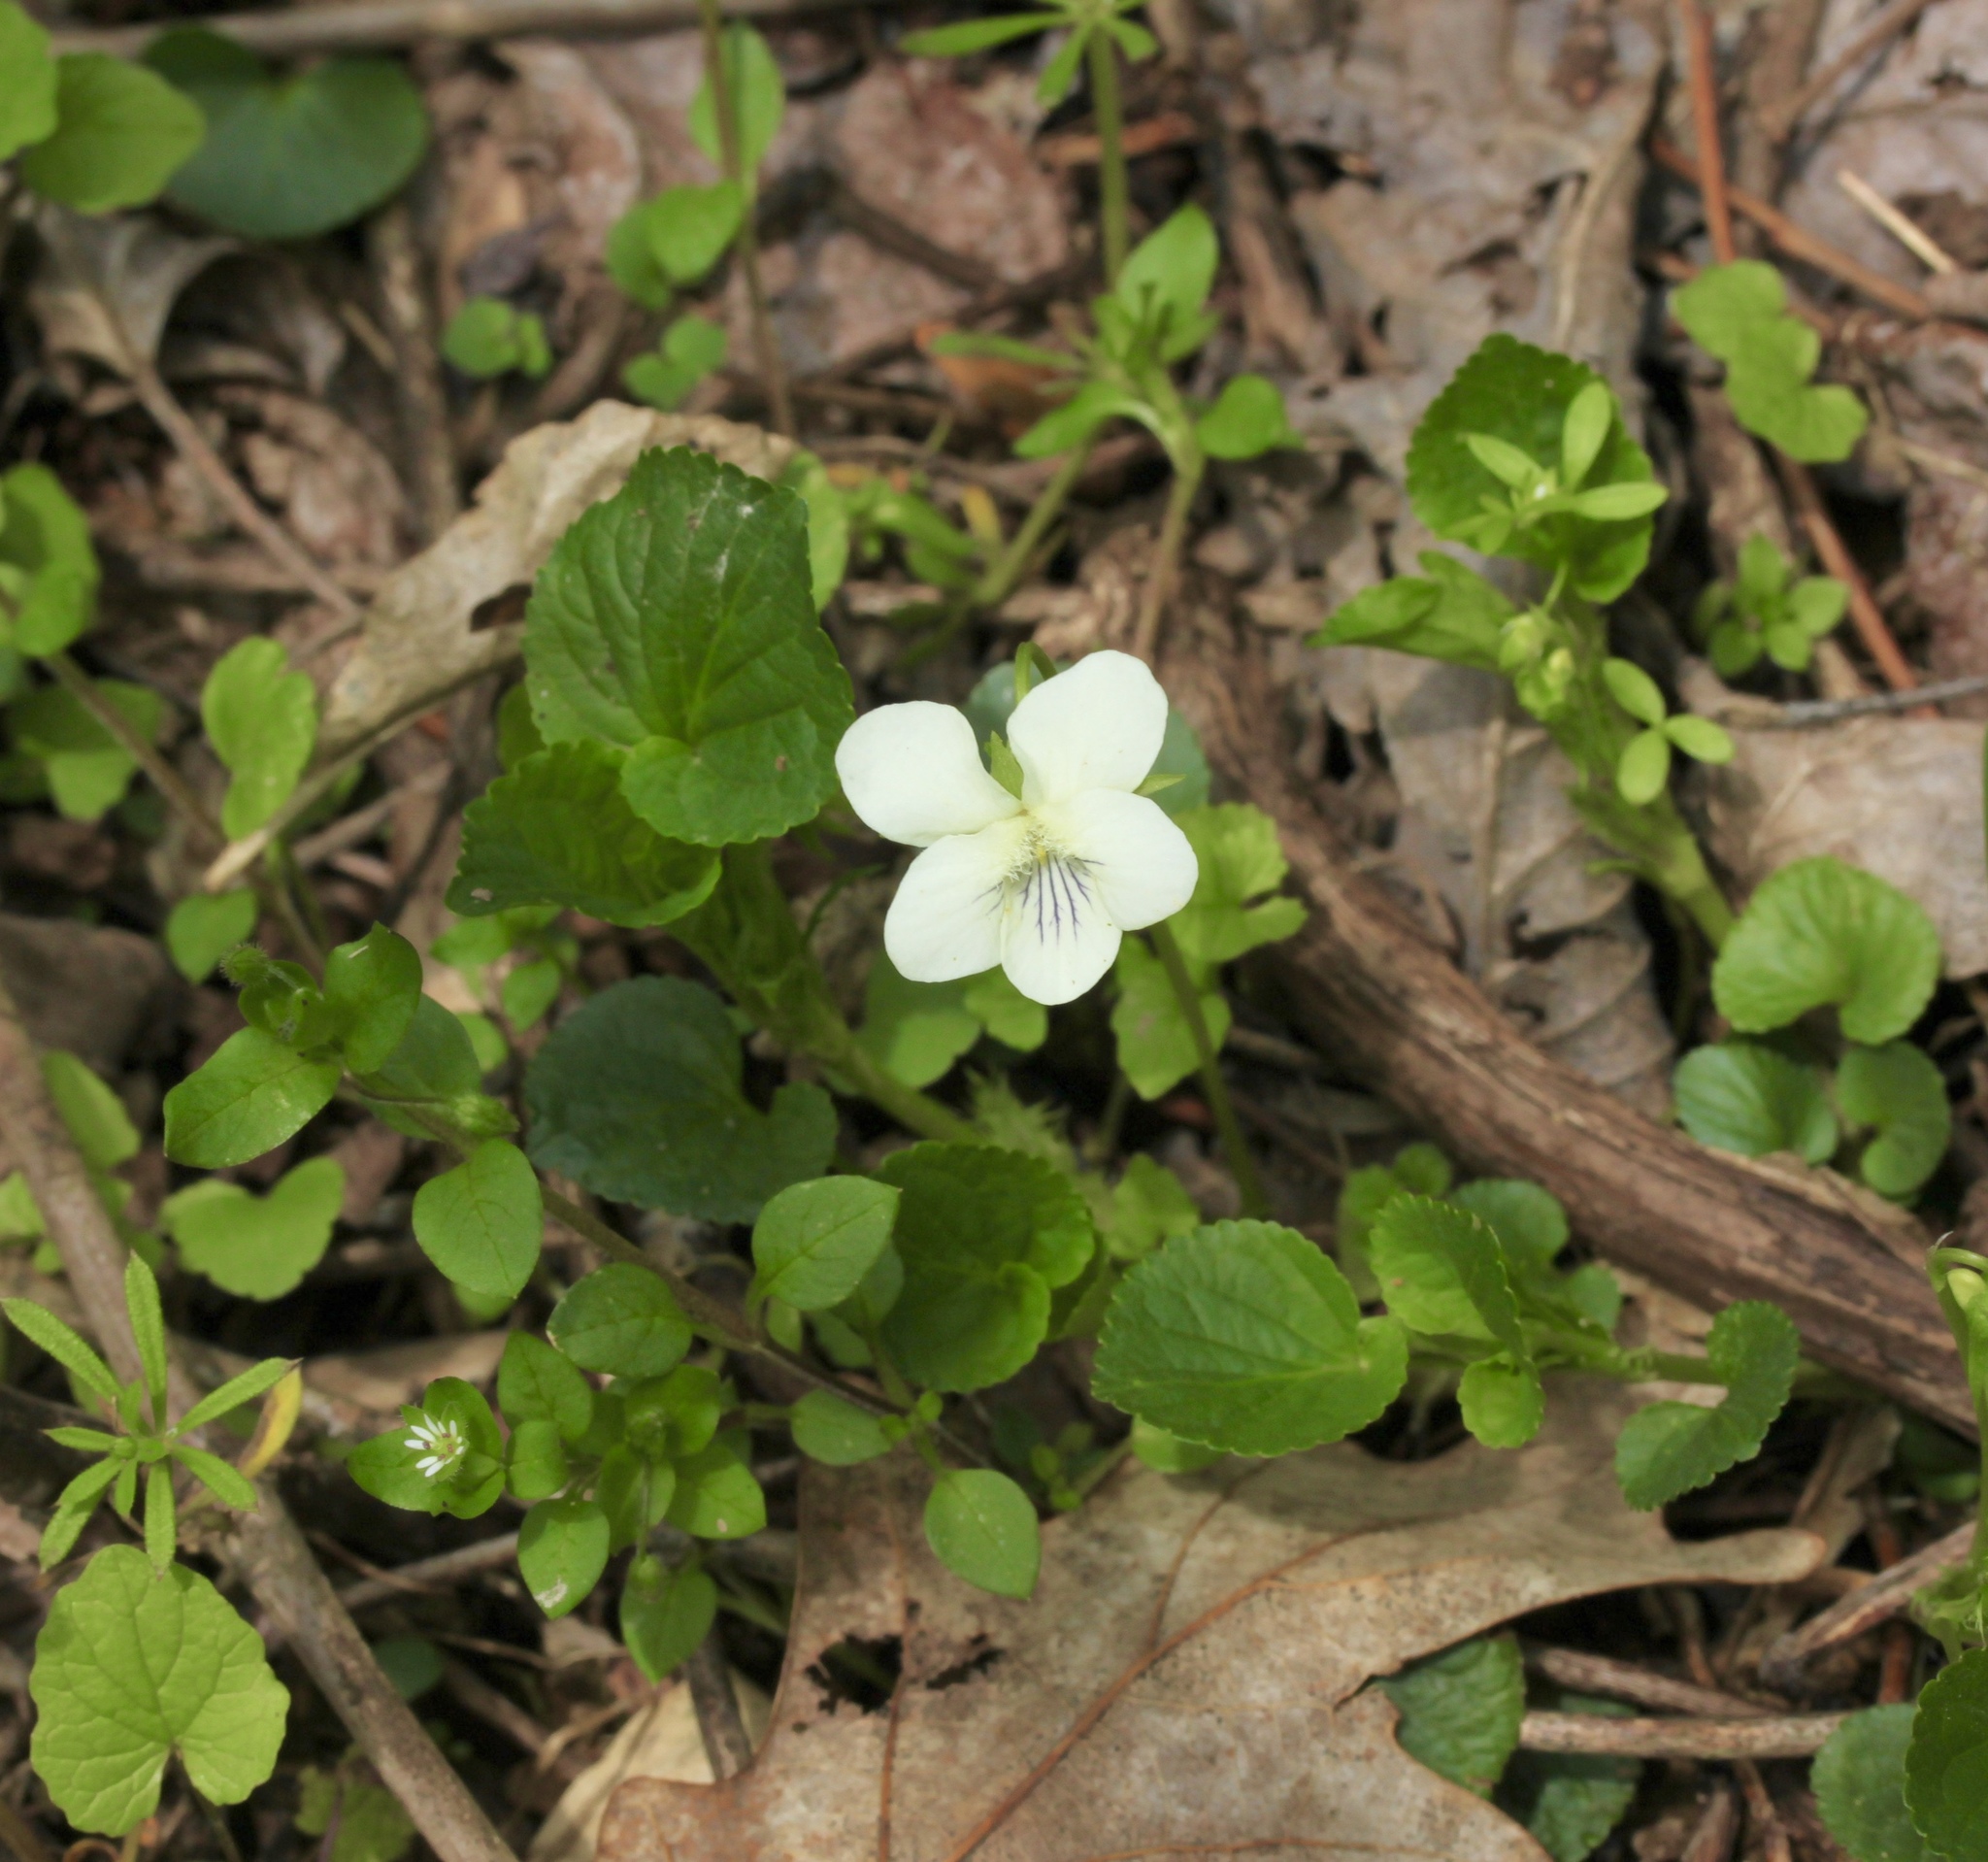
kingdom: Plantae
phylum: Tracheophyta
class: Magnoliopsida
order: Malpighiales
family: Violaceae
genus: Viola
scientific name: Viola striata
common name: Cream violet
